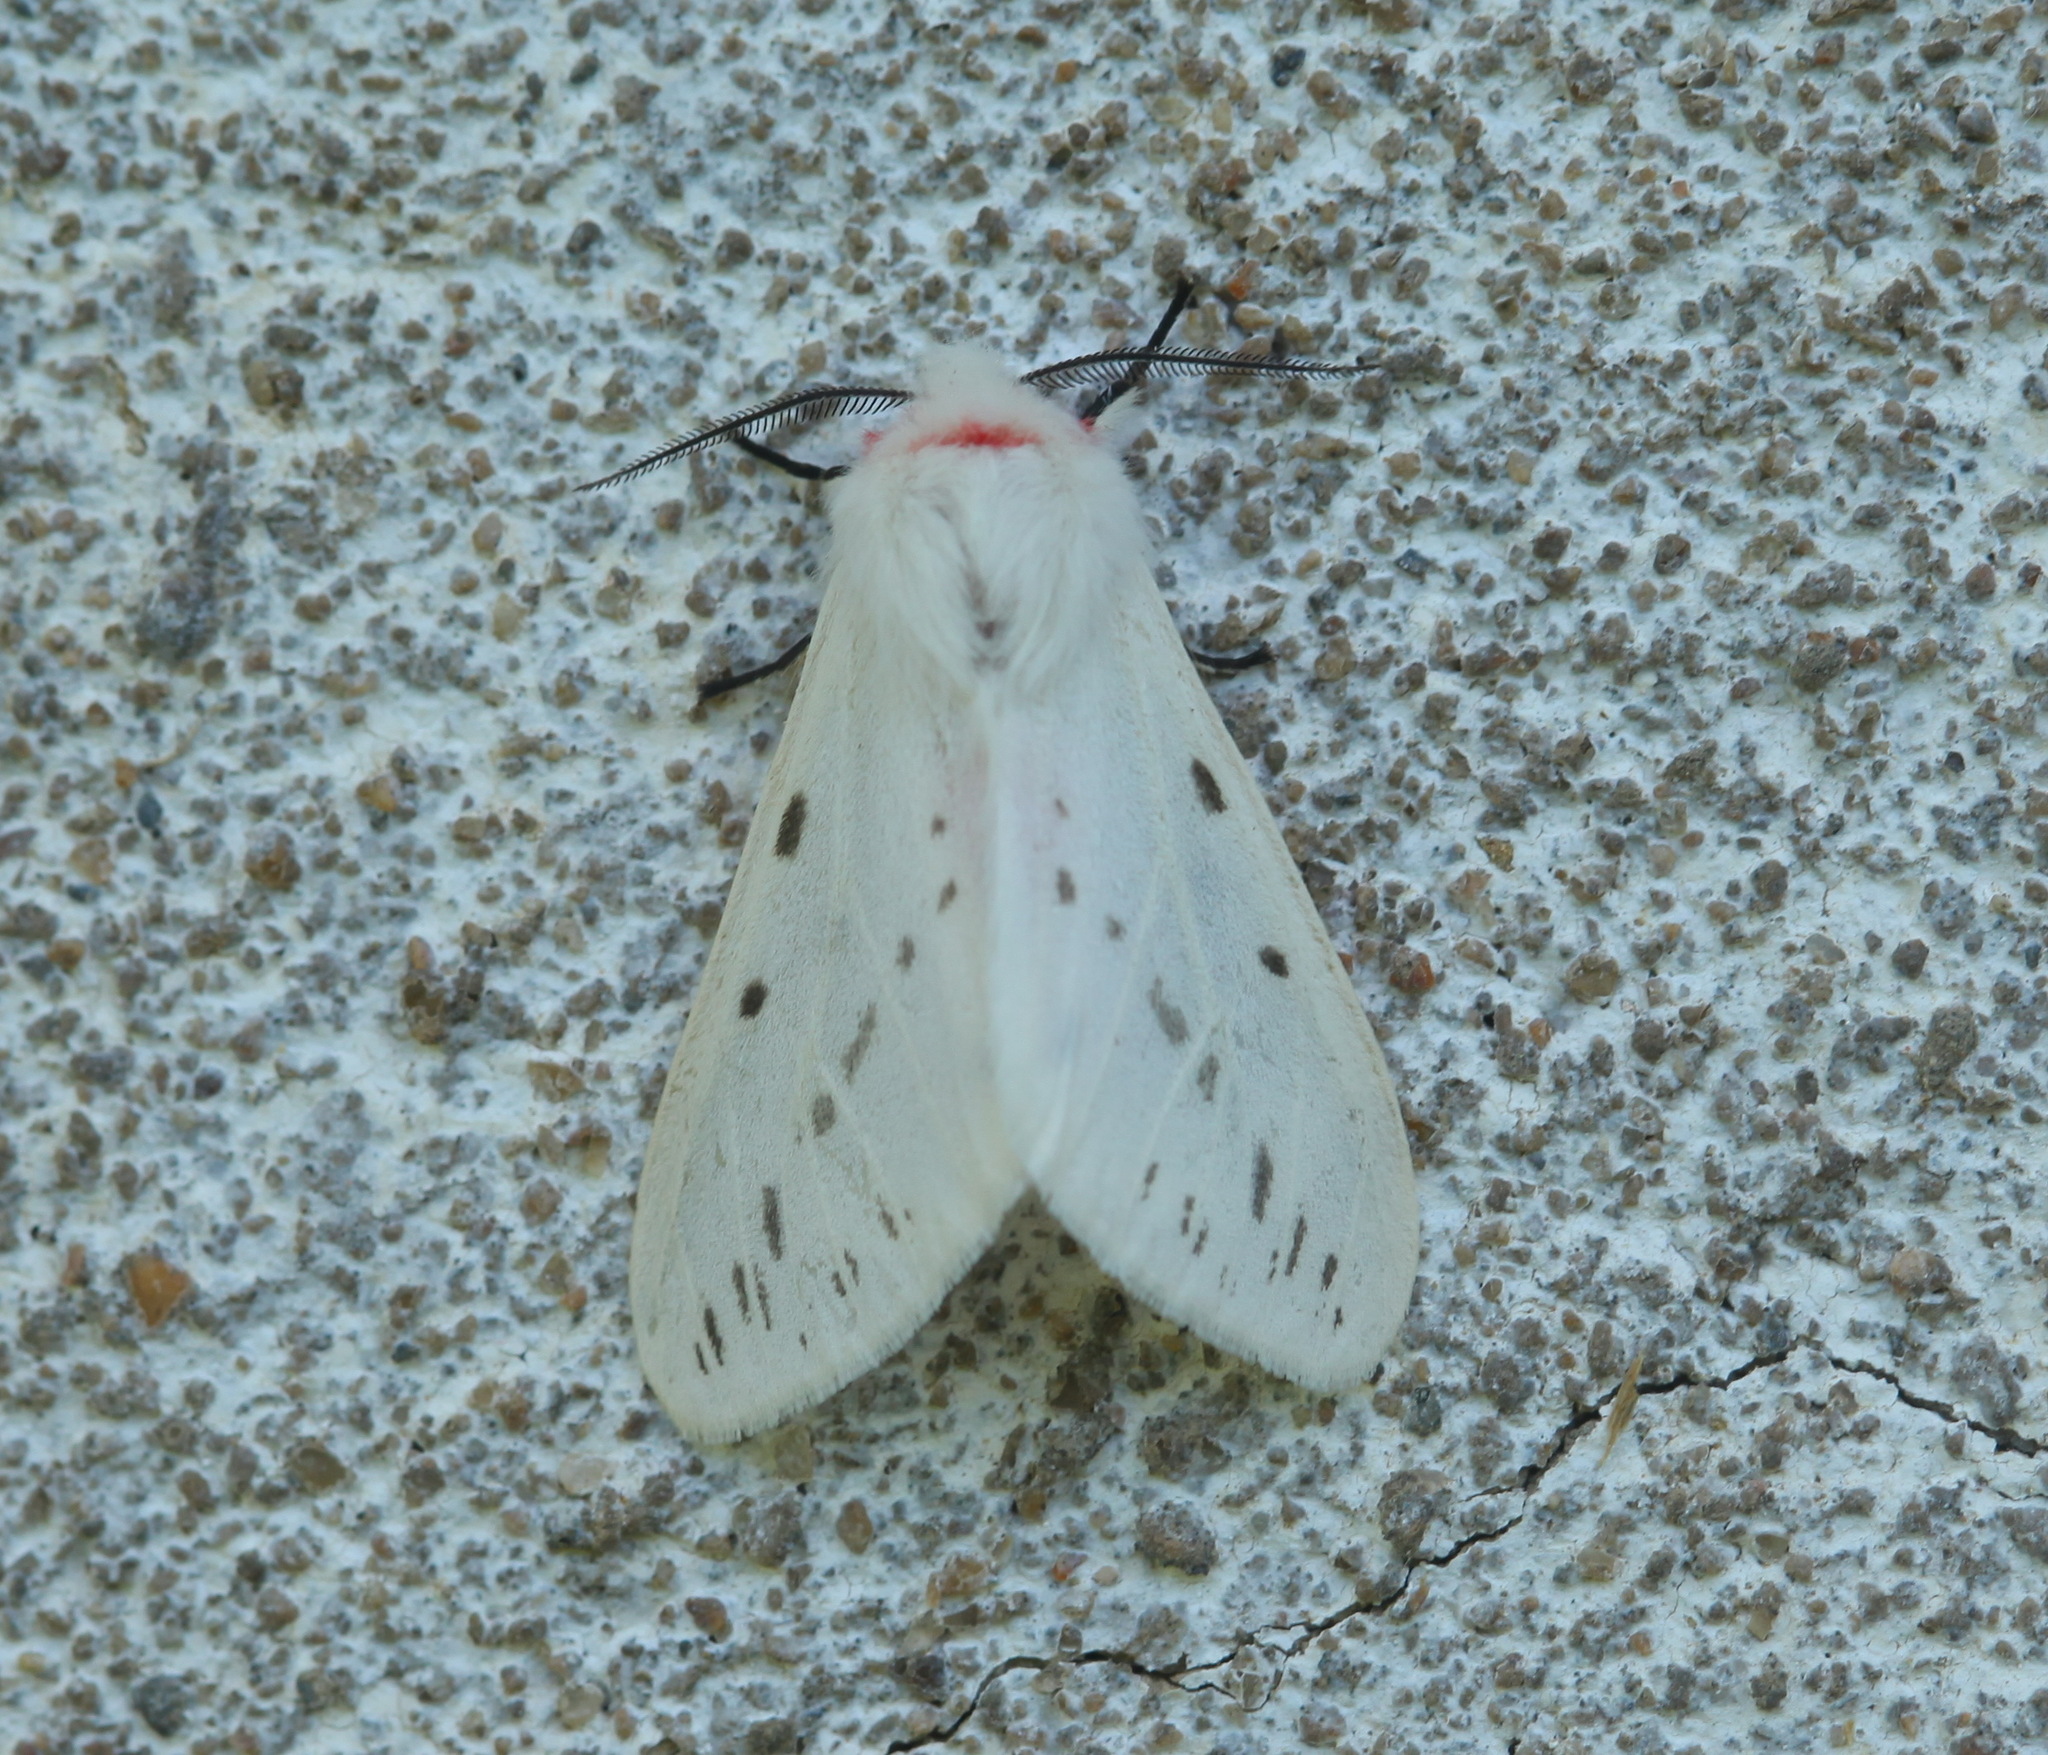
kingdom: Animalia
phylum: Arthropoda
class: Insecta
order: Lepidoptera
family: Erebidae
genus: Lemyra
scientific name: Lemyra boghaika
